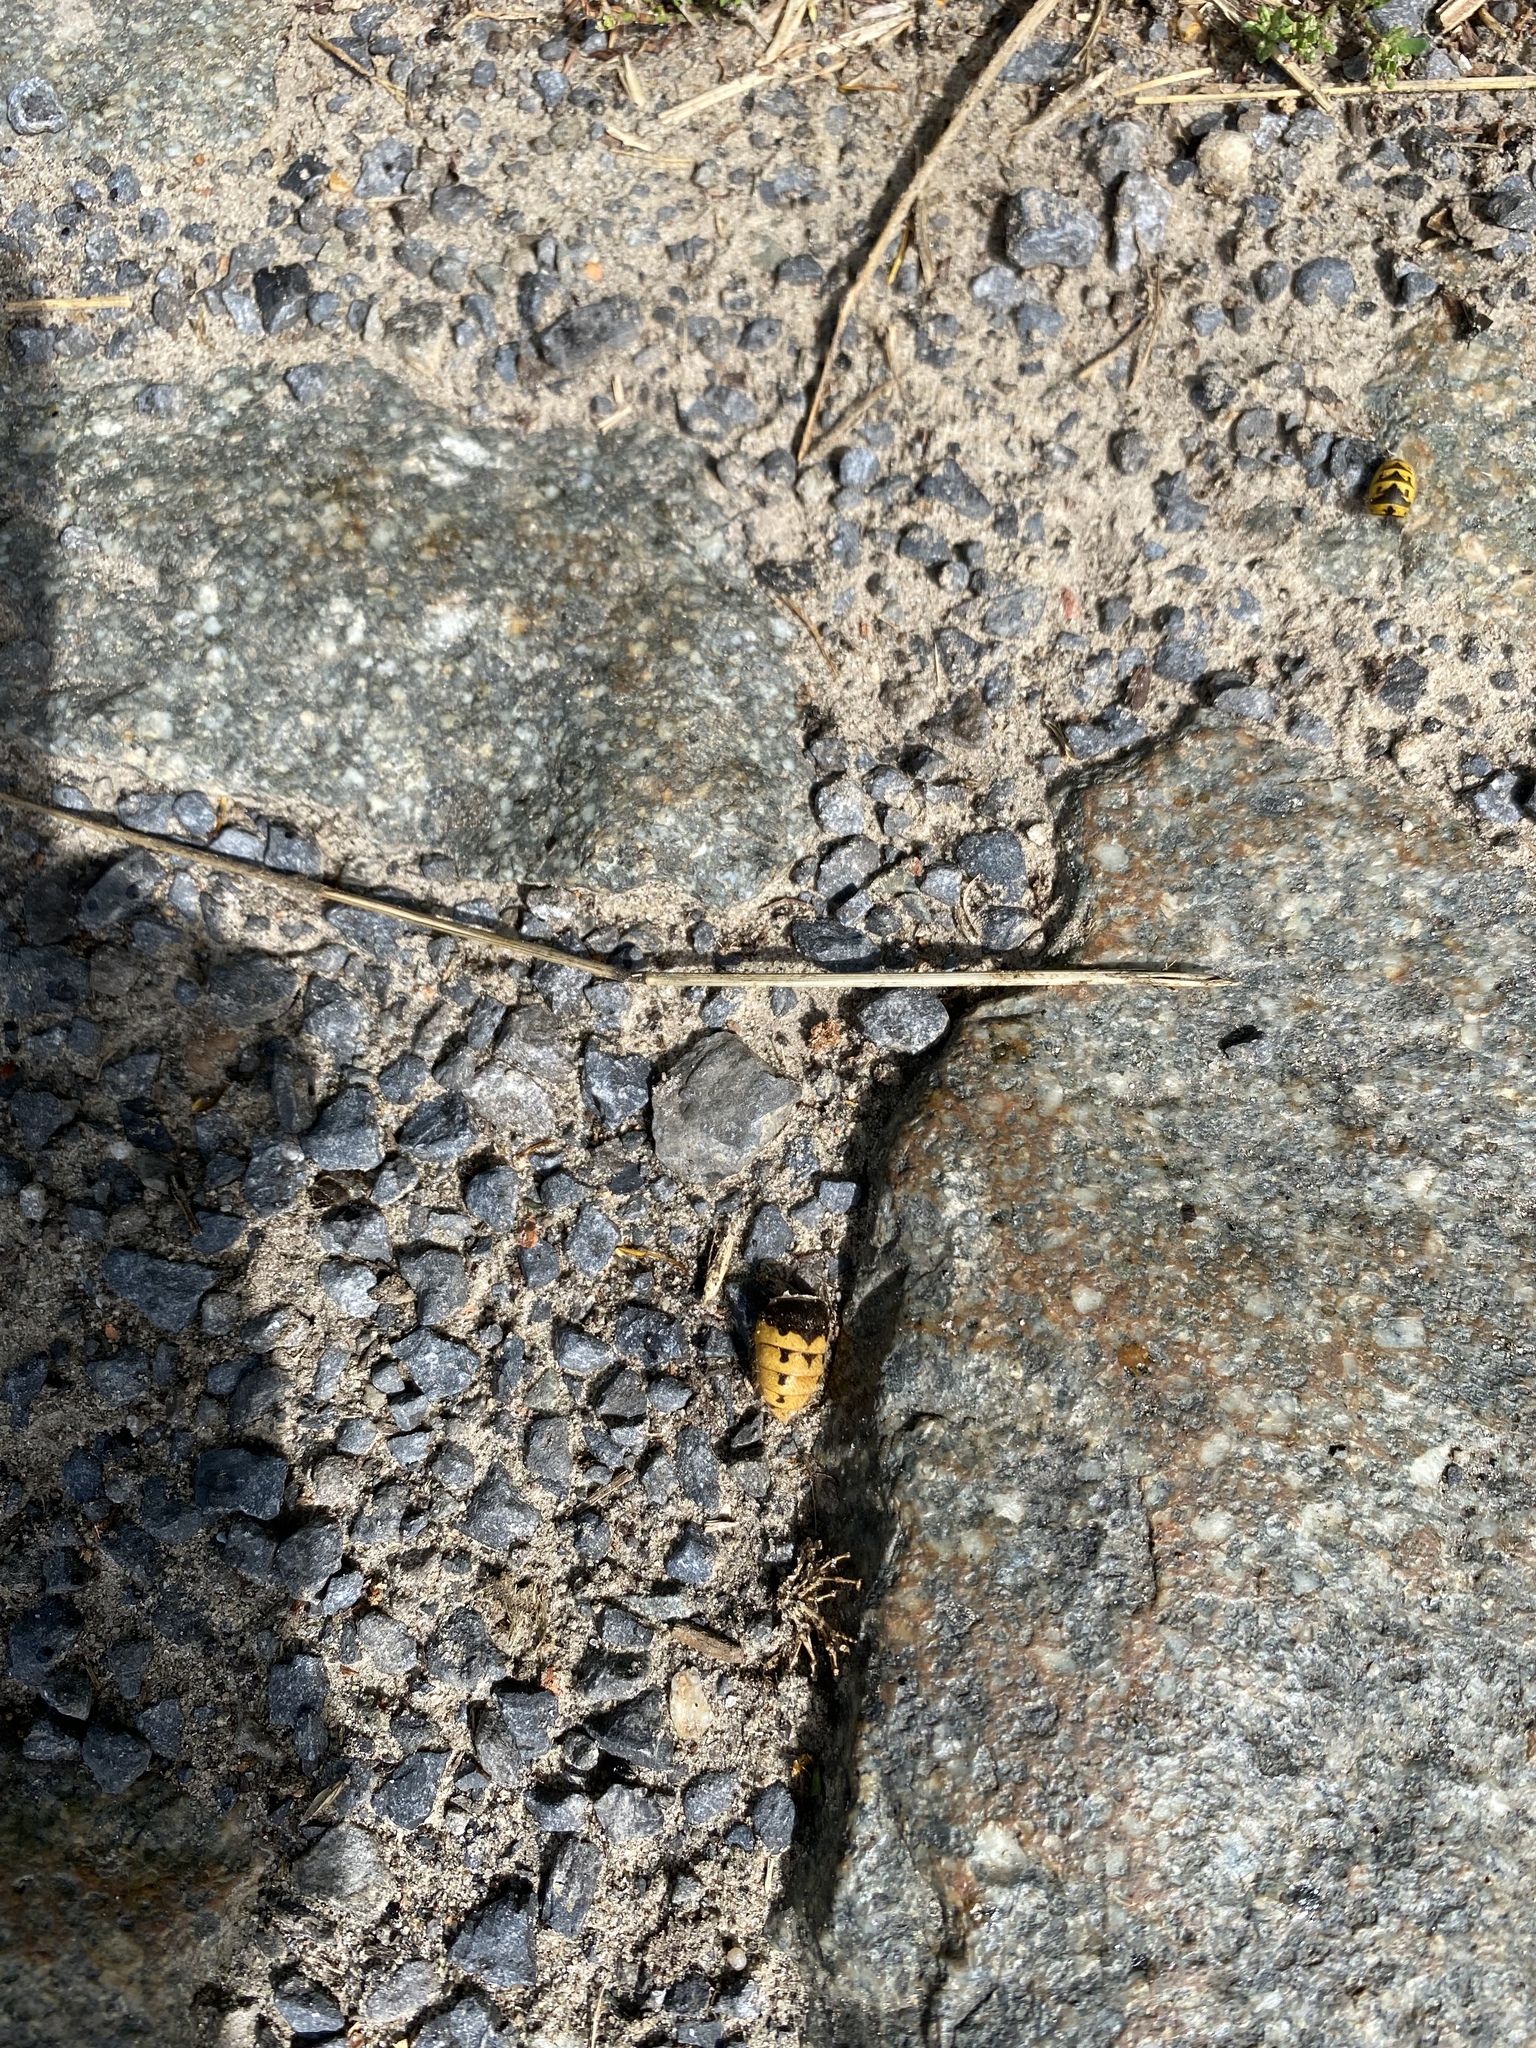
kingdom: Animalia
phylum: Arthropoda
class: Insecta
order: Hymenoptera
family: Vespidae
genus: Vespa
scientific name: Vespa crabro
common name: Hornet
